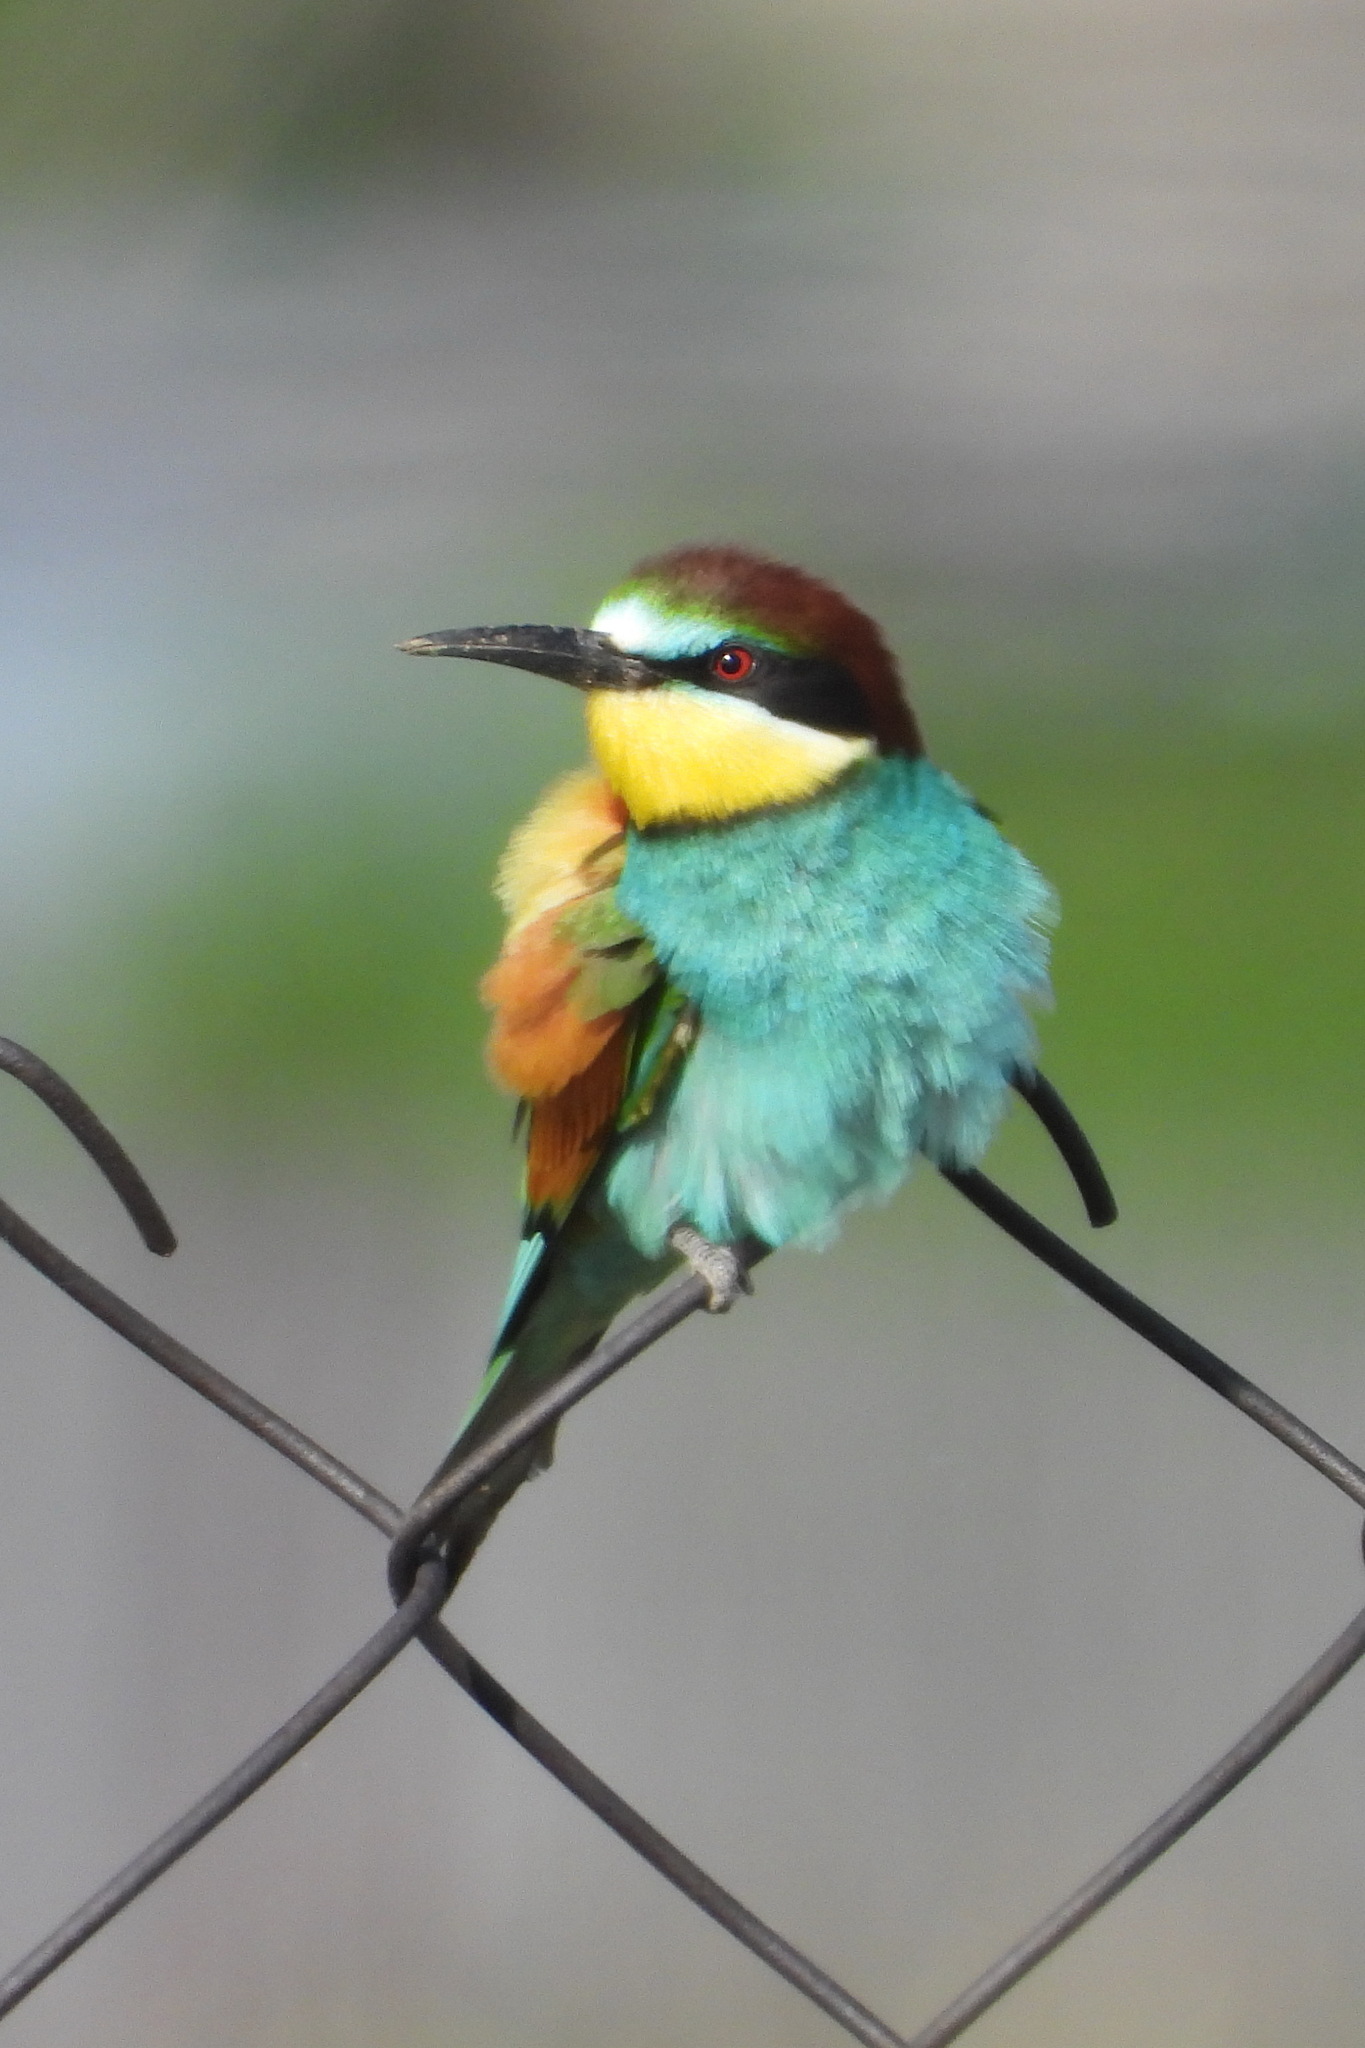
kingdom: Animalia
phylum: Chordata
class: Aves
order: Coraciiformes
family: Meropidae
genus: Merops
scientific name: Merops apiaster
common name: European bee-eater
